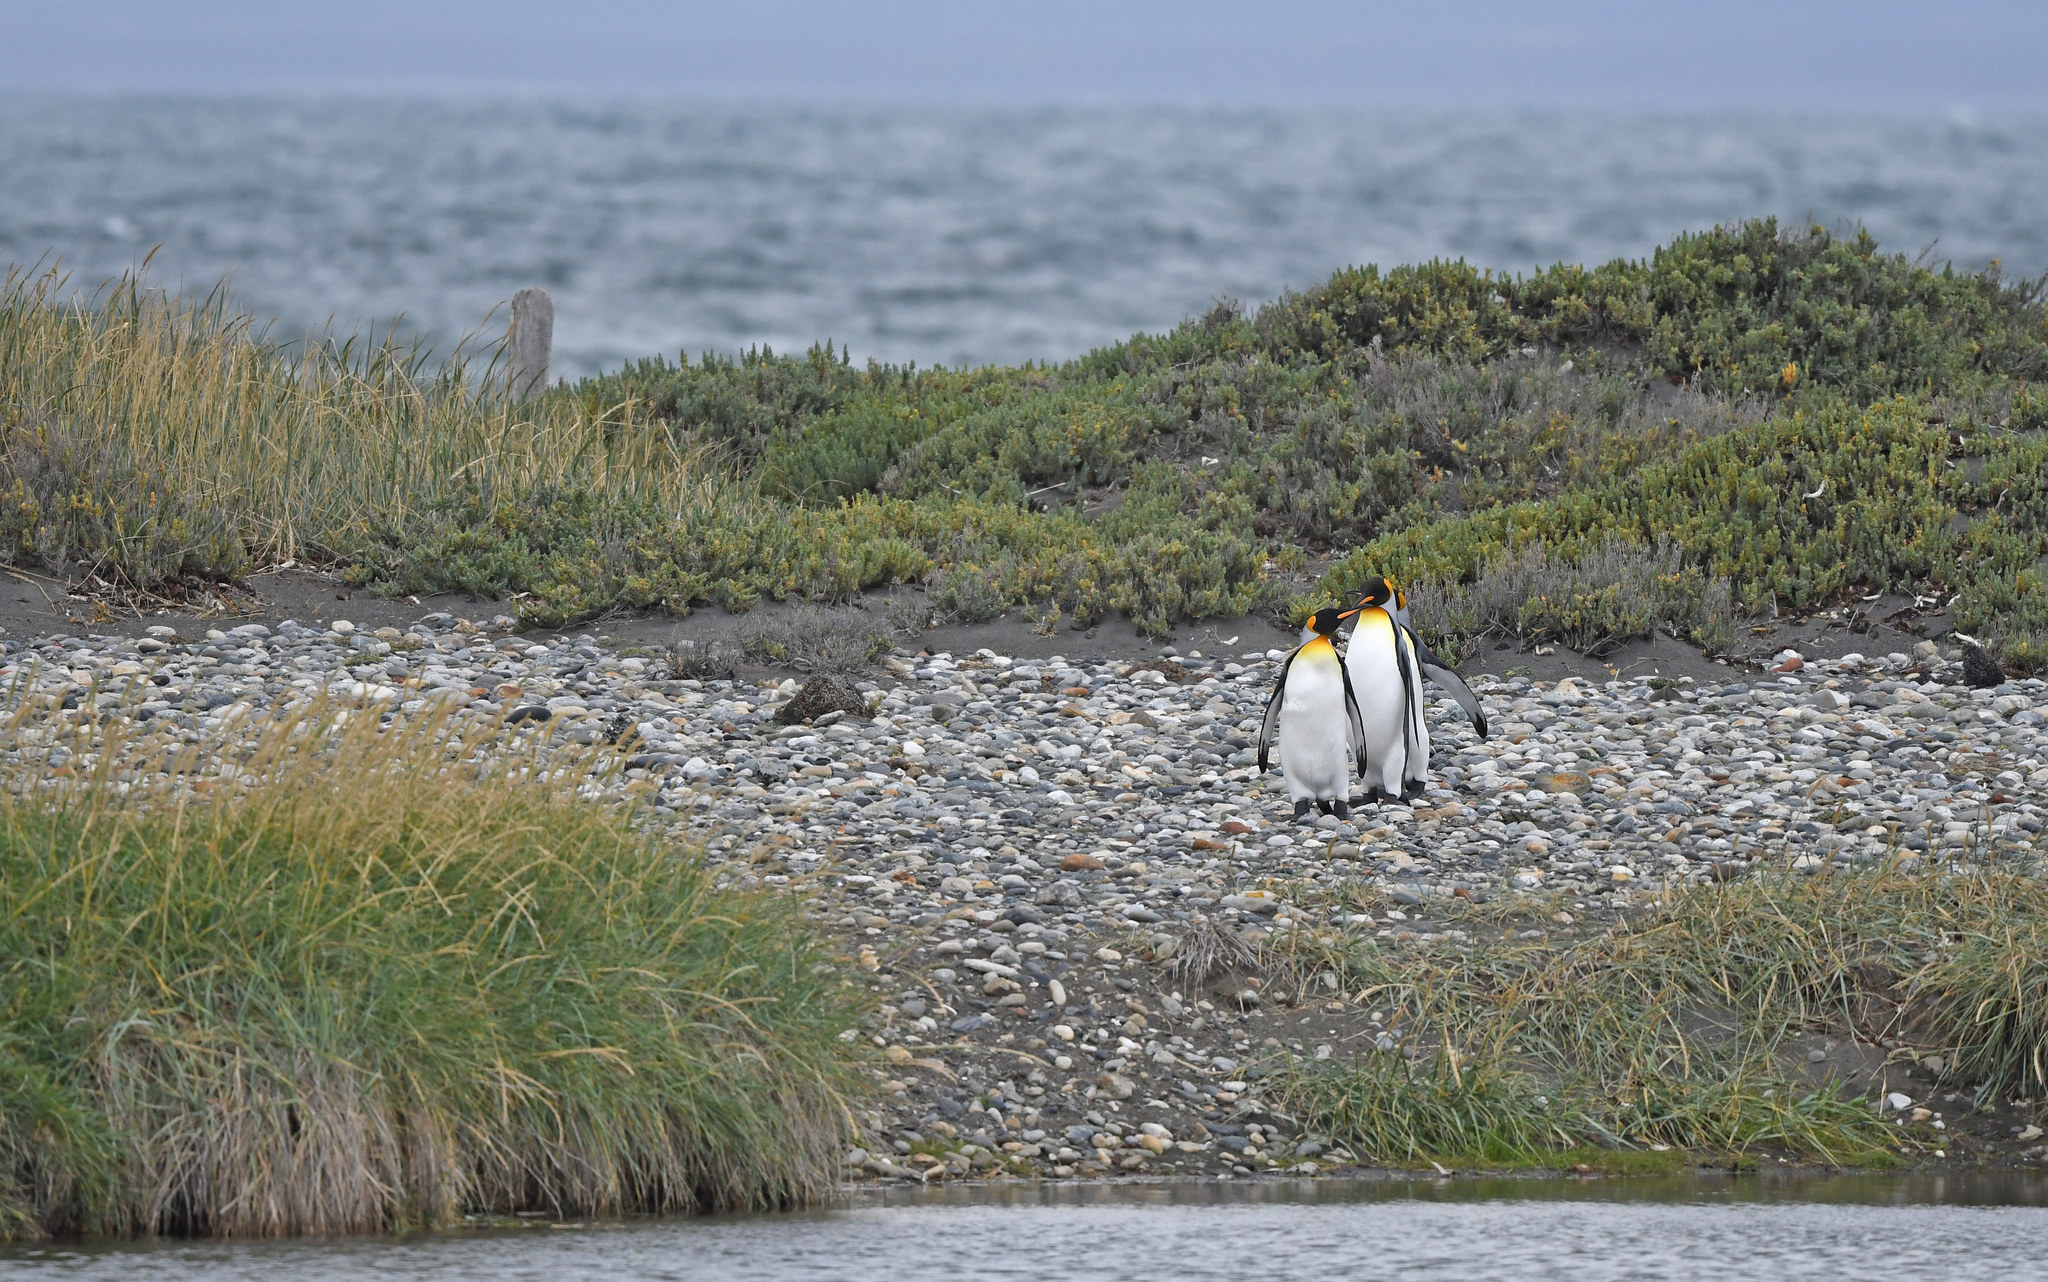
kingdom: Animalia
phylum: Chordata
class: Aves
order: Sphenisciformes
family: Spheniscidae
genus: Aptenodytes
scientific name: Aptenodytes patagonicus
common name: King penguin
